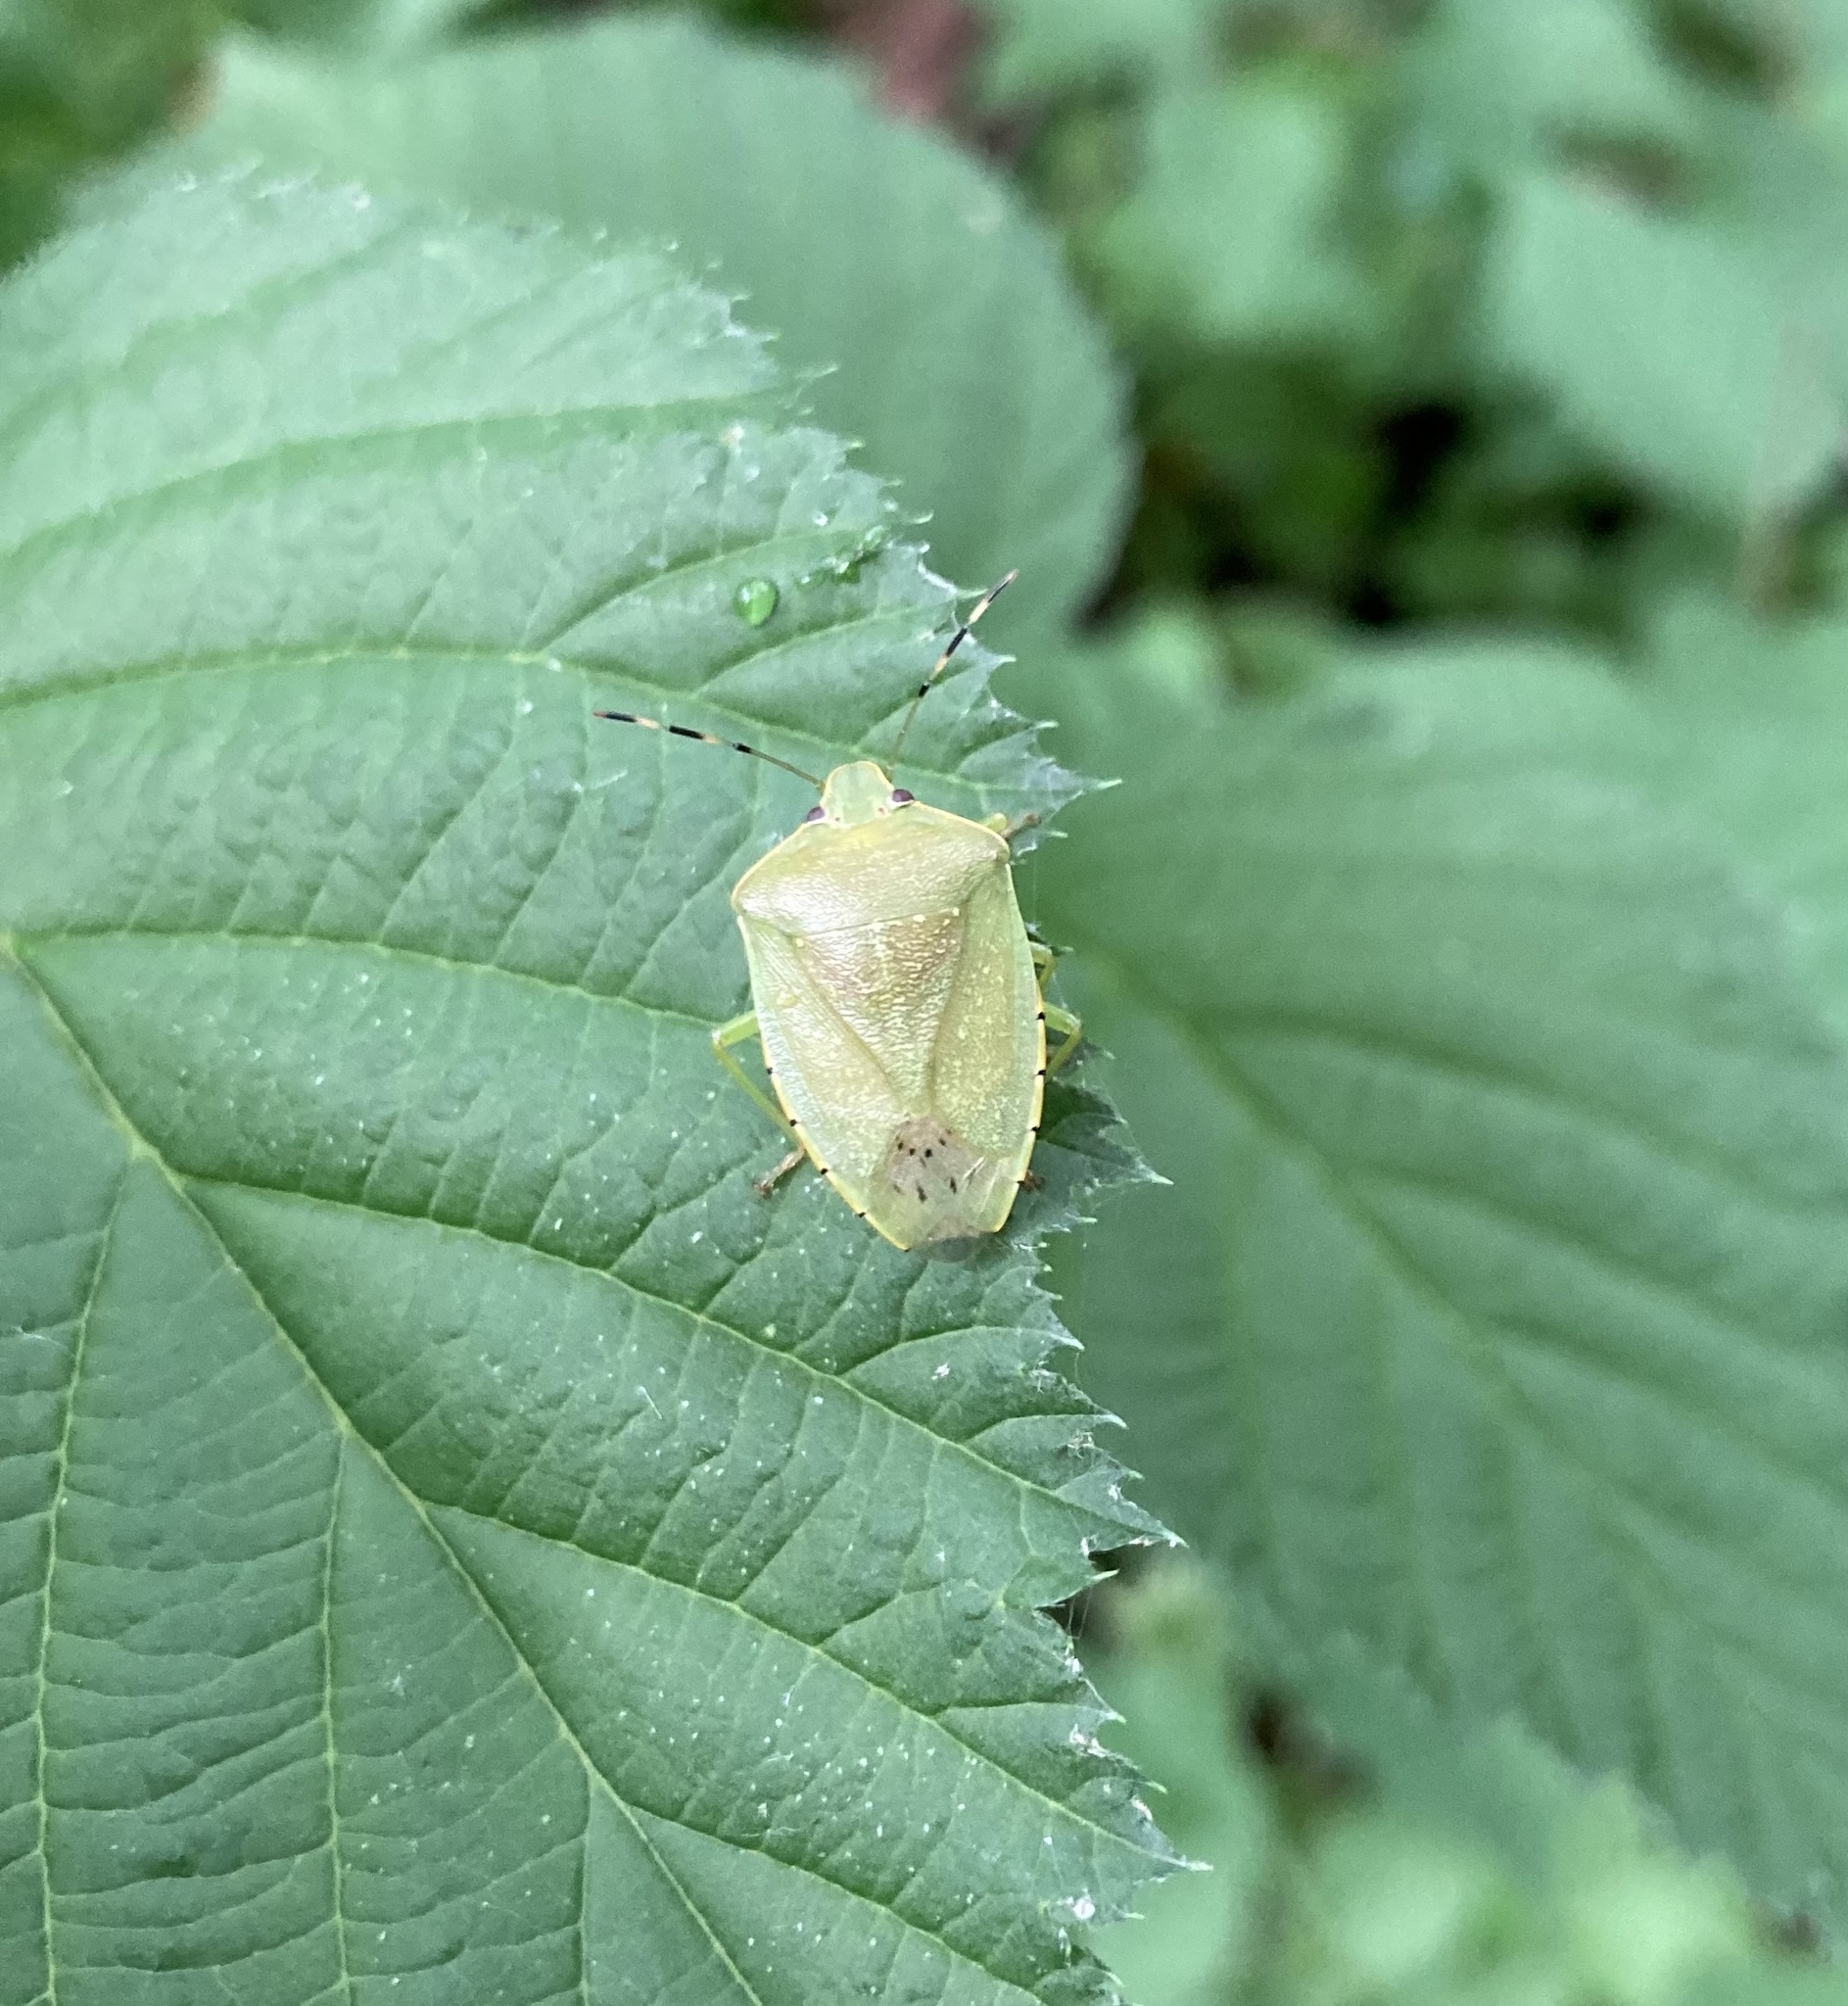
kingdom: Animalia
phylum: Arthropoda
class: Insecta
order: Hemiptera
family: Pentatomidae
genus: Chinavia
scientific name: Chinavia hilaris
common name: Green stink bug
